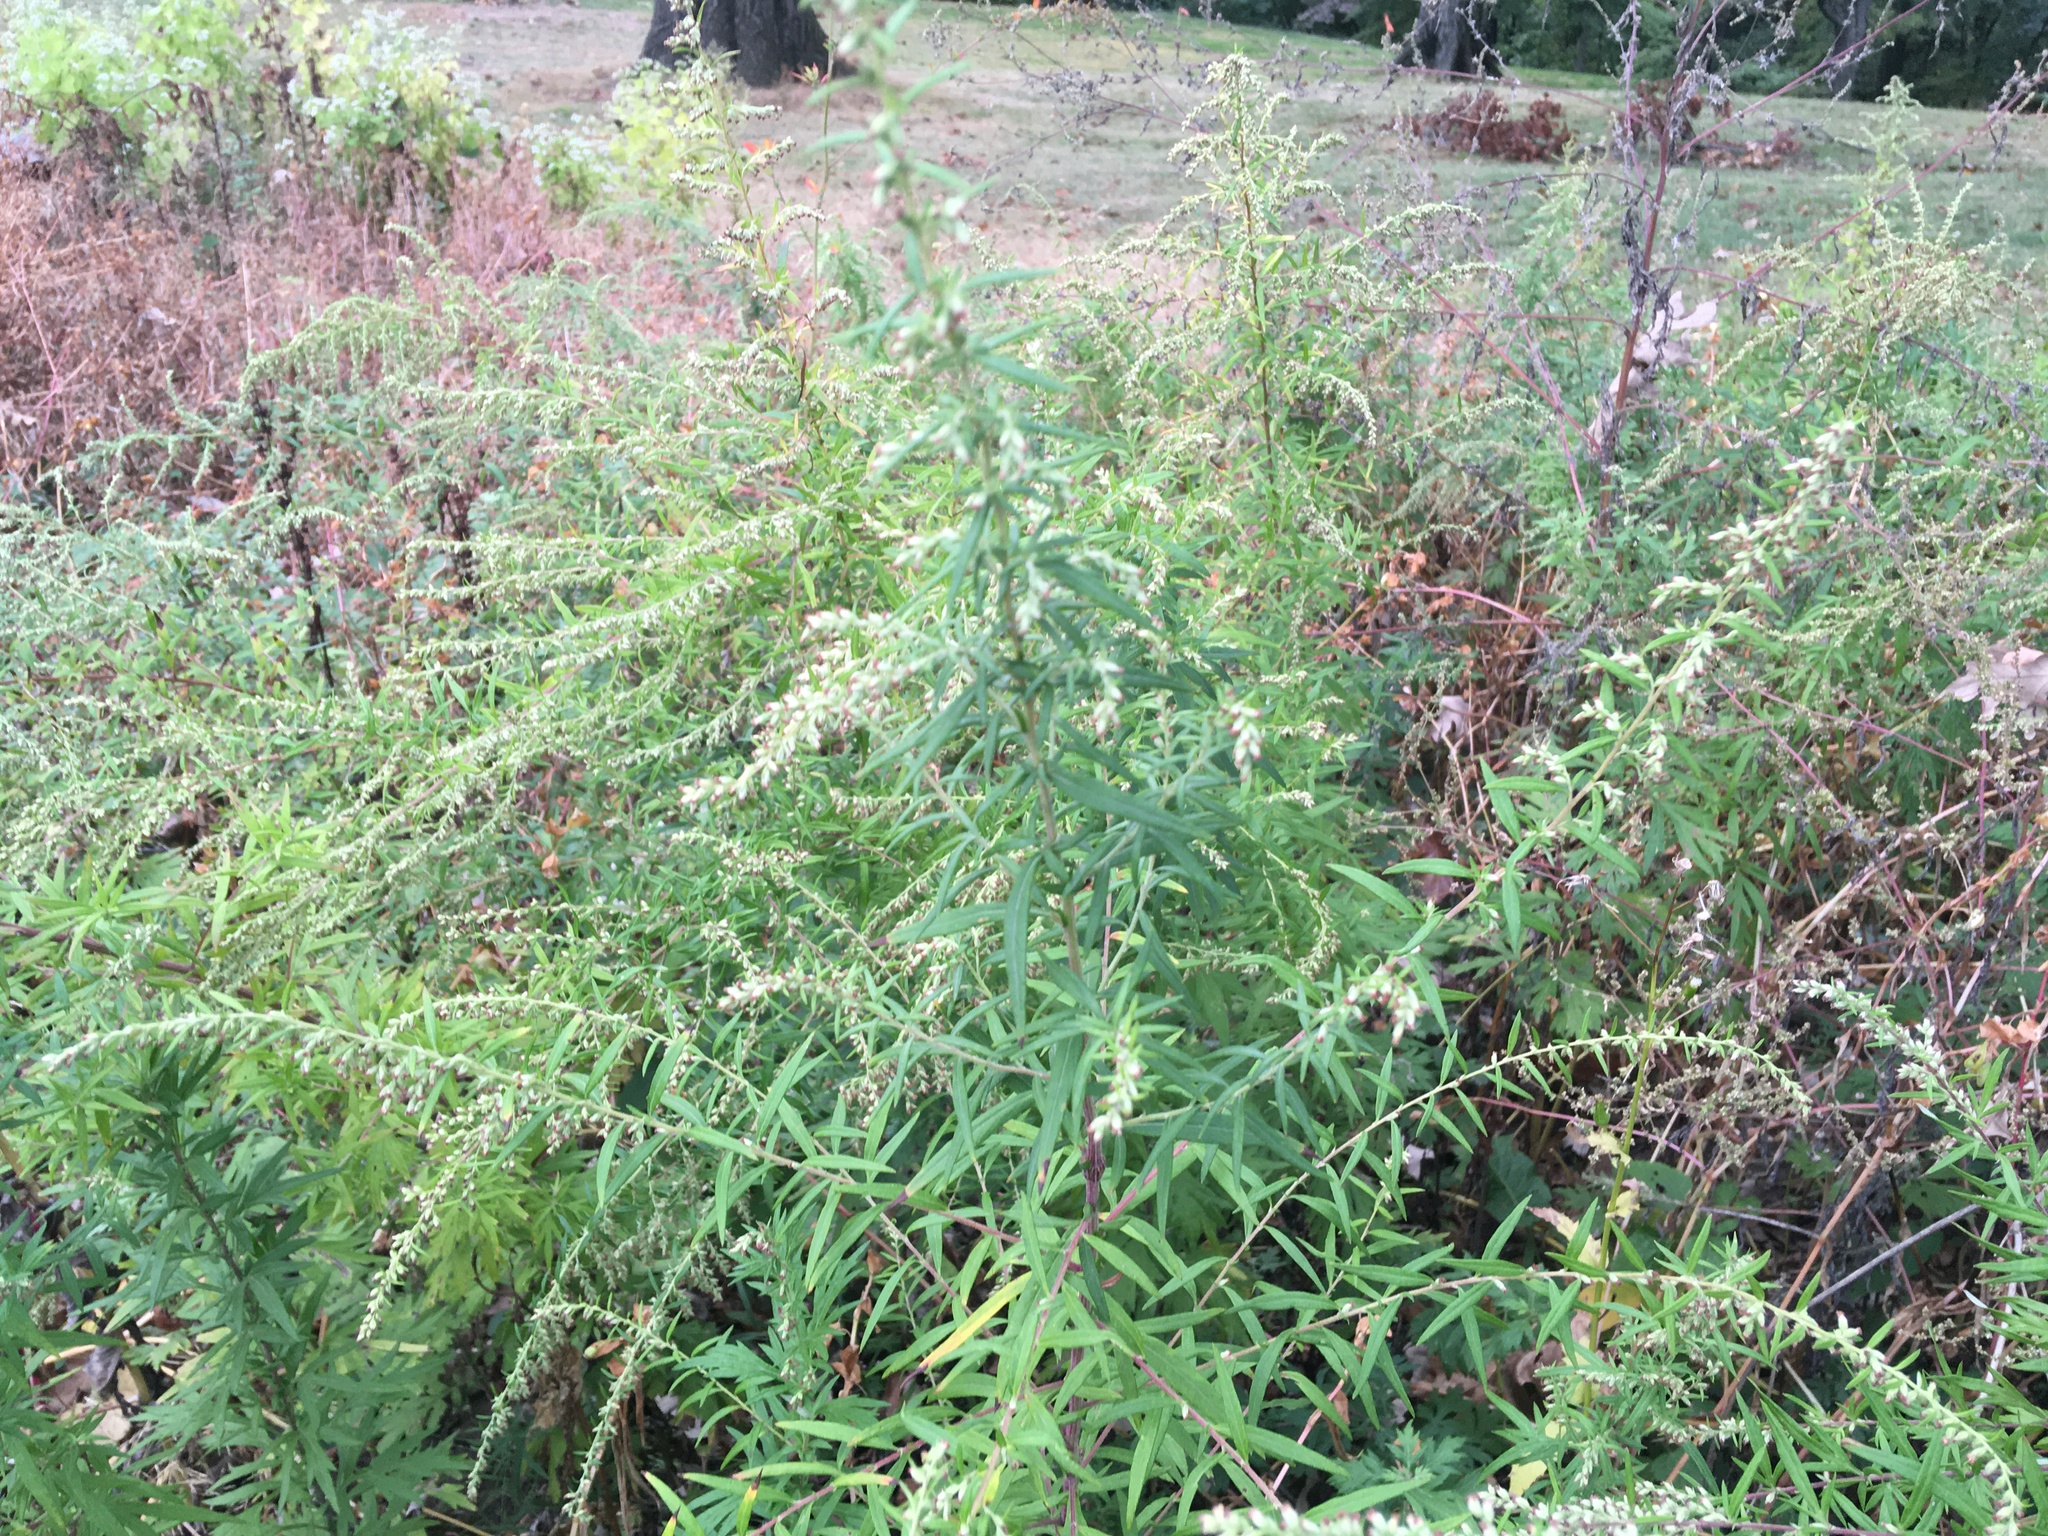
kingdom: Plantae
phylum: Tracheophyta
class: Magnoliopsida
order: Asterales
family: Asteraceae
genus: Artemisia
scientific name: Artemisia vulgaris
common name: Mugwort
